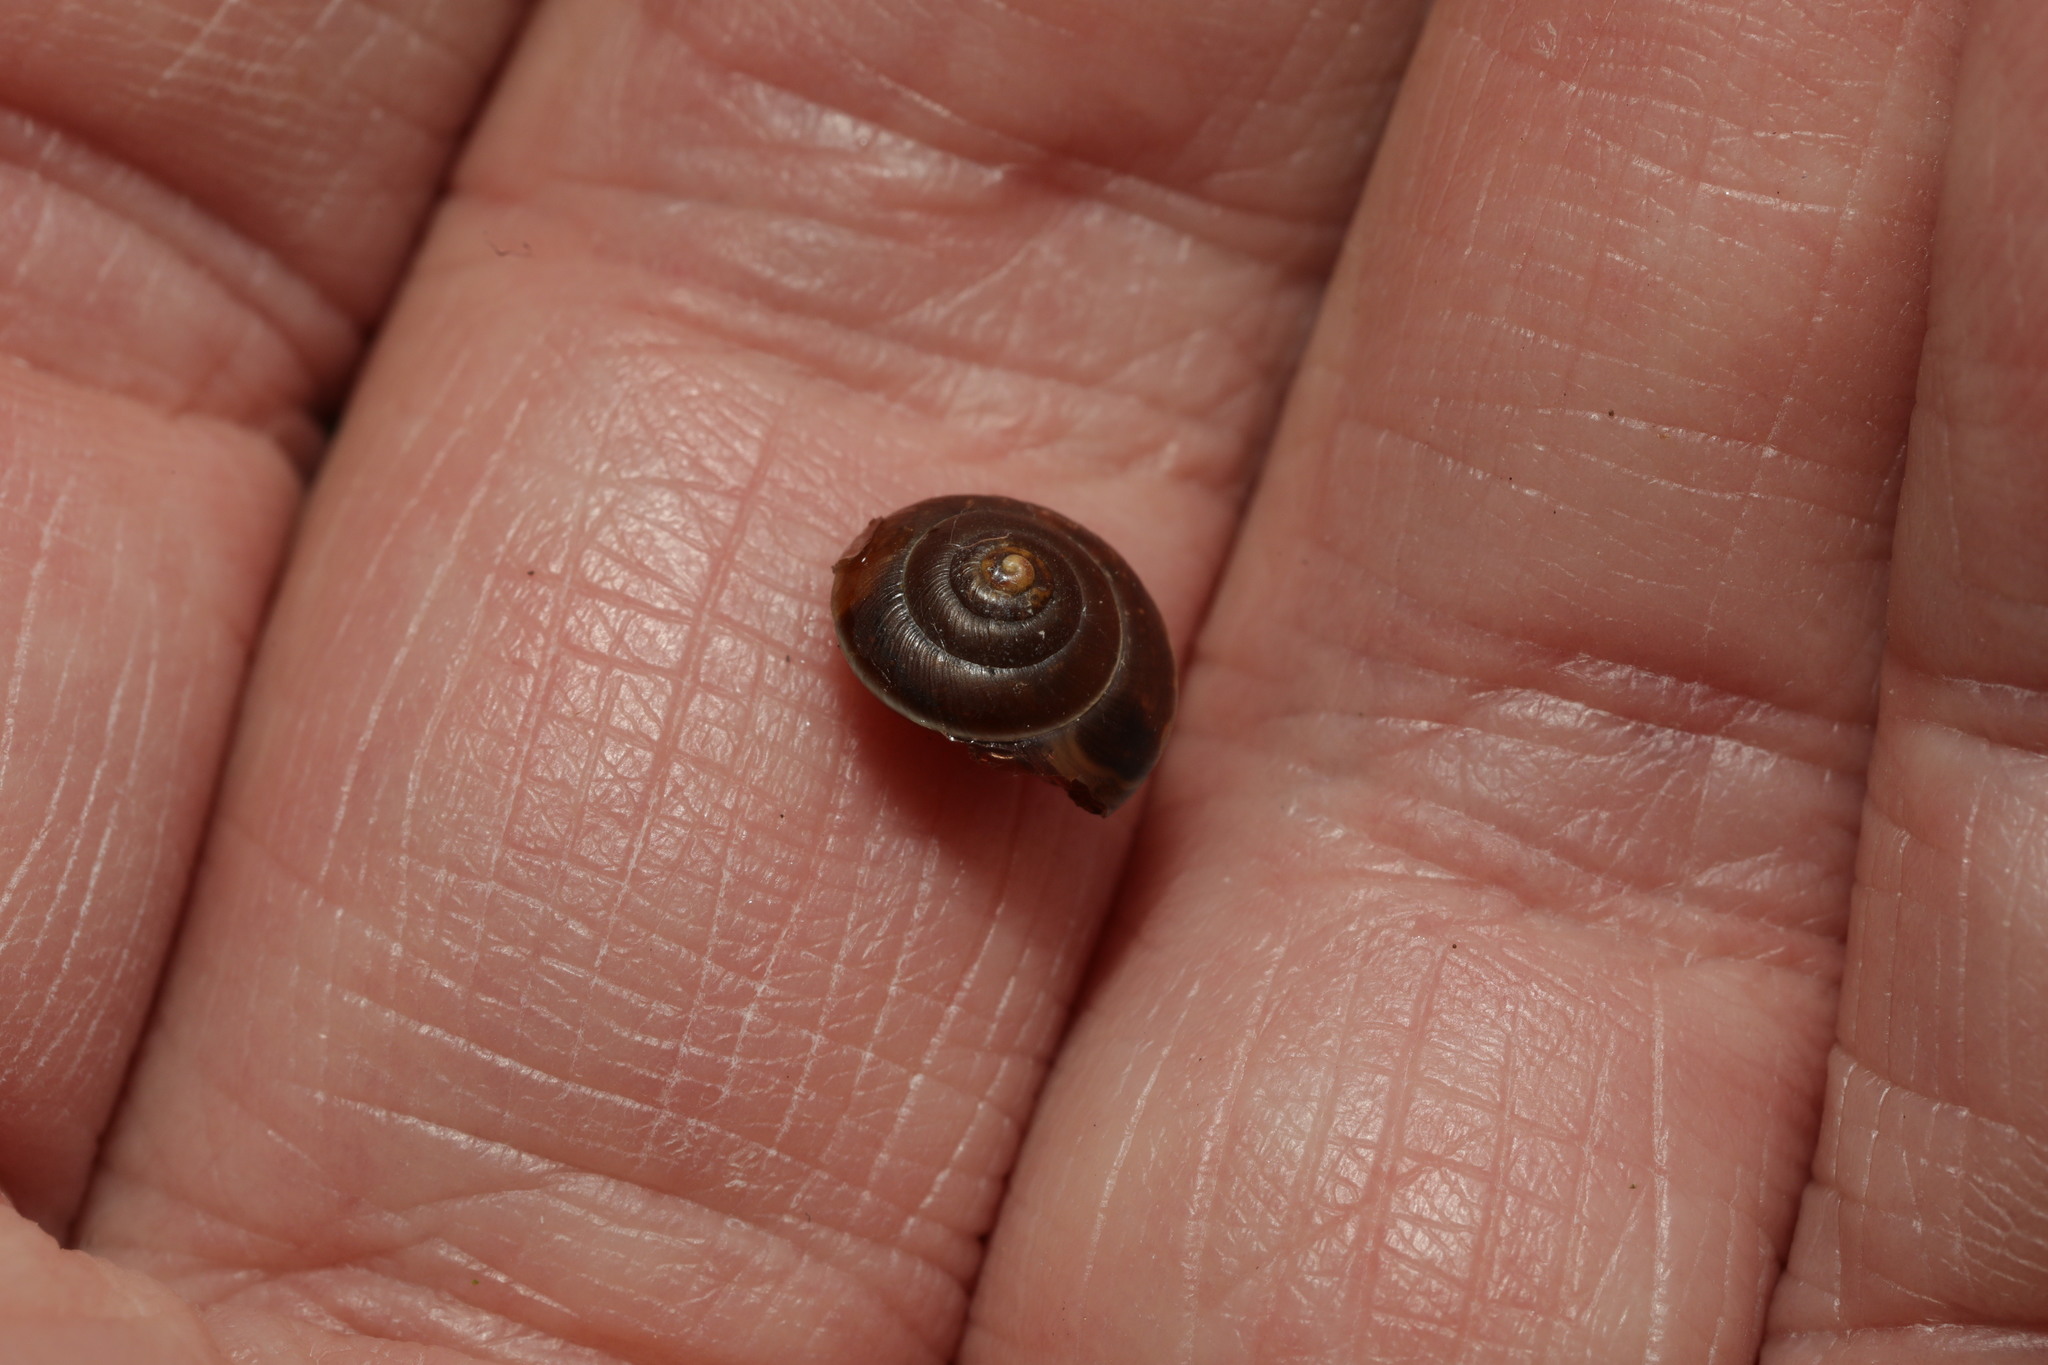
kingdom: Animalia
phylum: Mollusca
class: Gastropoda
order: Stylommatophora
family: Hygromiidae
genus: Hygromia
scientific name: Hygromia cinctella
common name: Girdled snail
